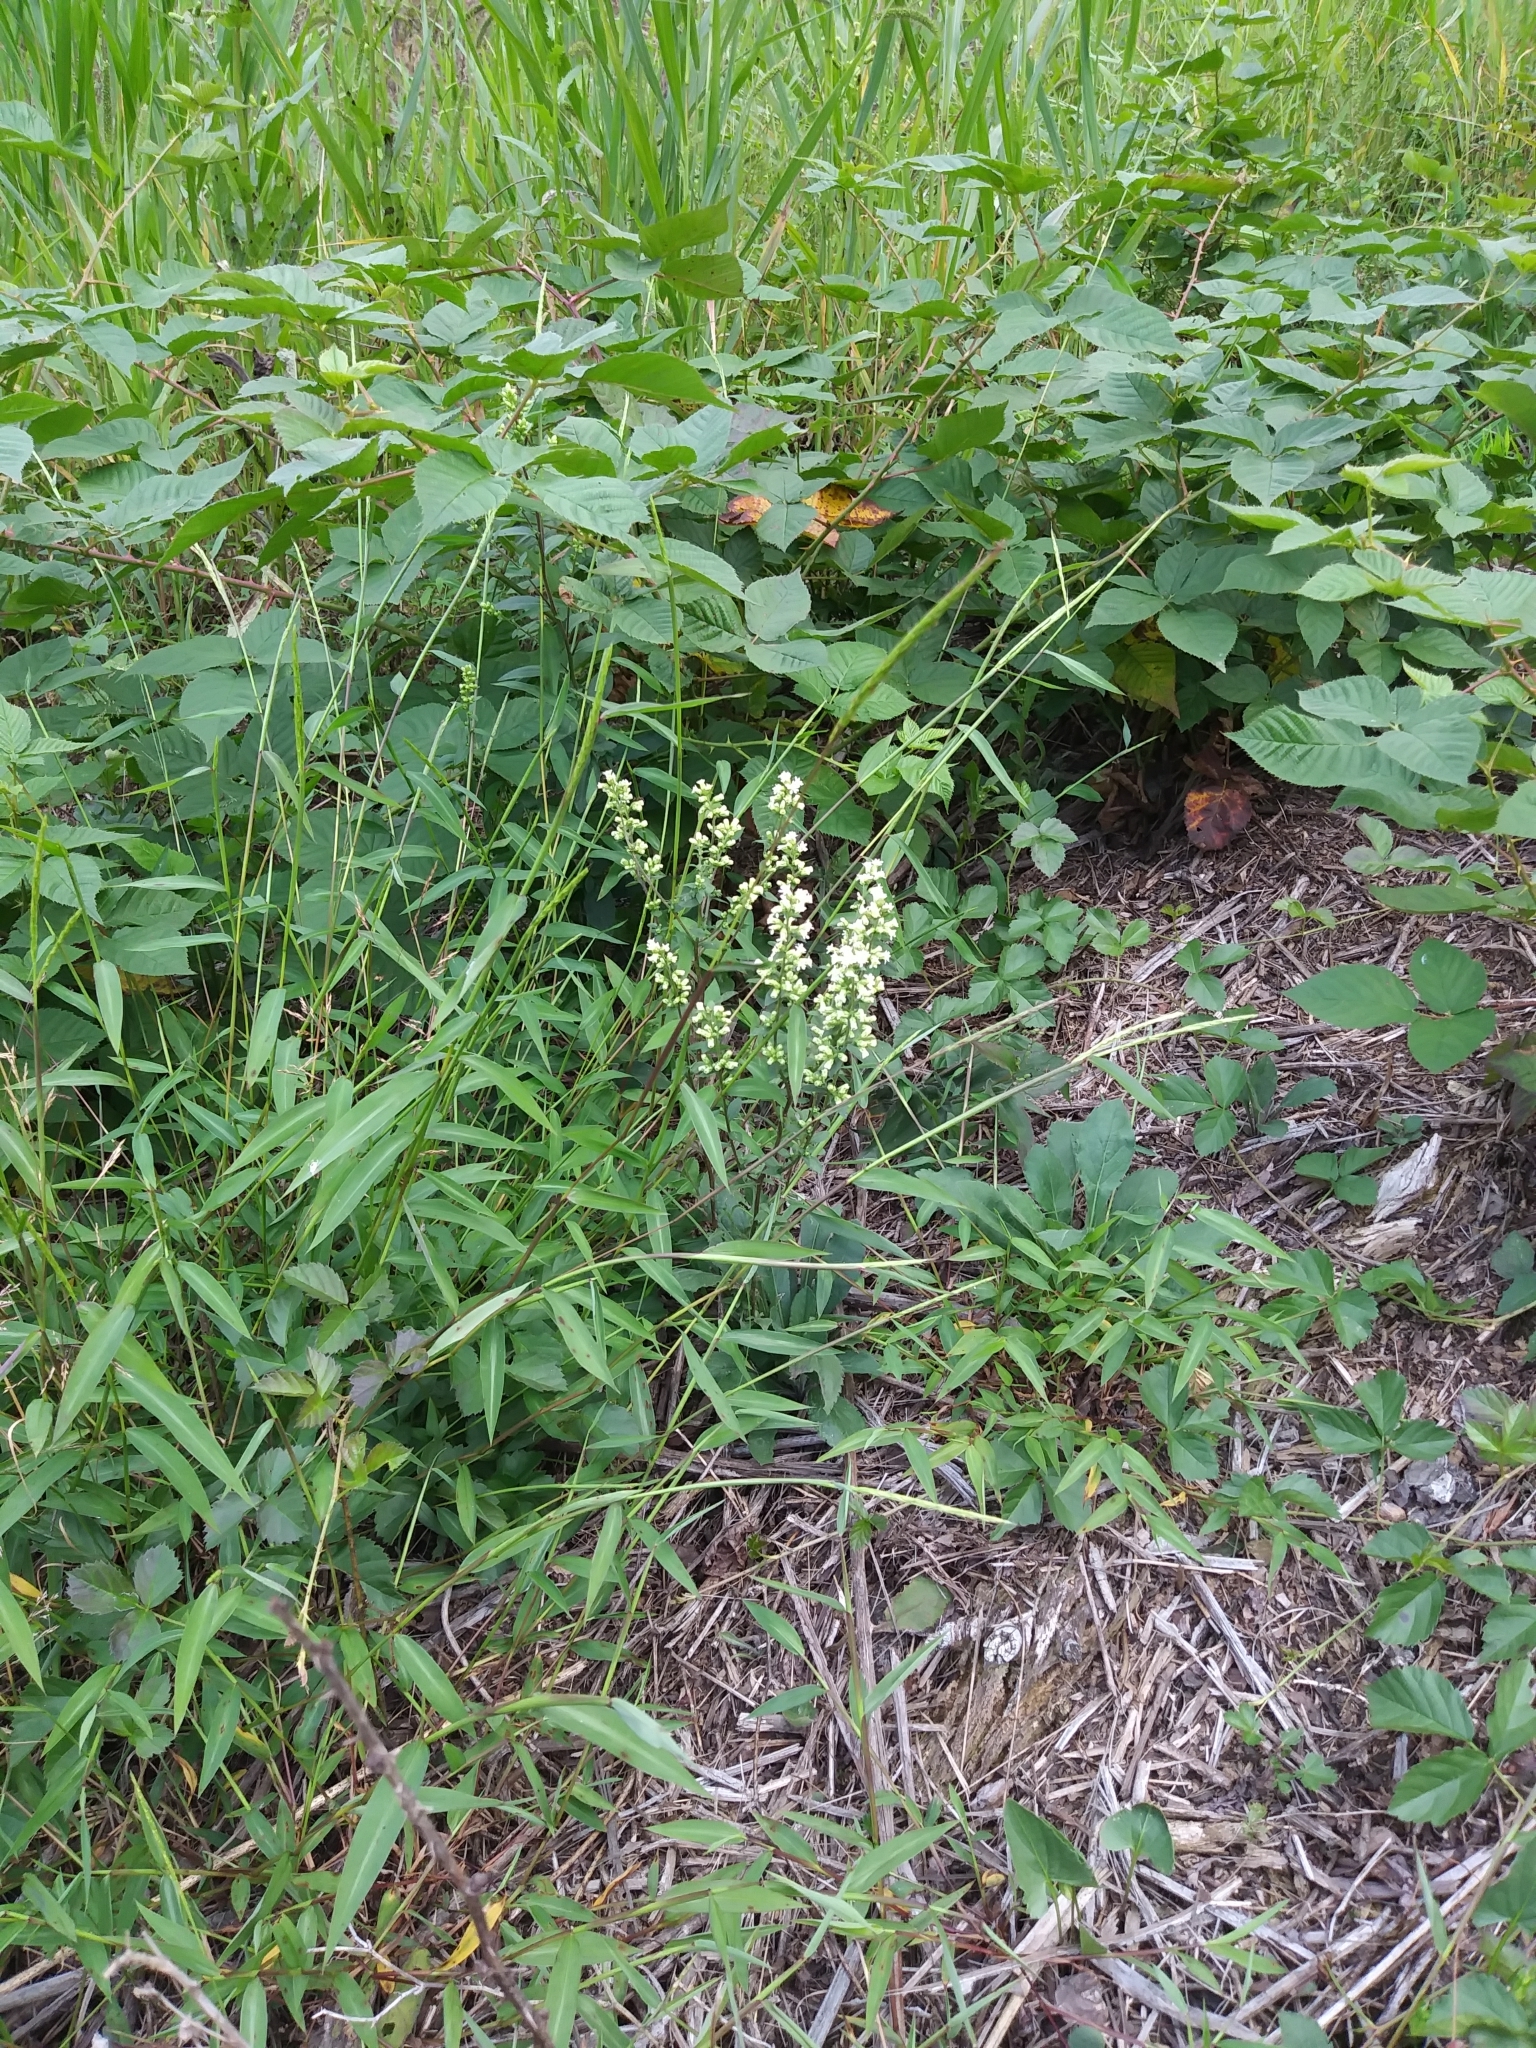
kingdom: Plantae
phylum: Tracheophyta
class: Magnoliopsida
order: Asterales
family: Asteraceae
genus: Solidago
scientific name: Solidago bicolor
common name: Silverrod
